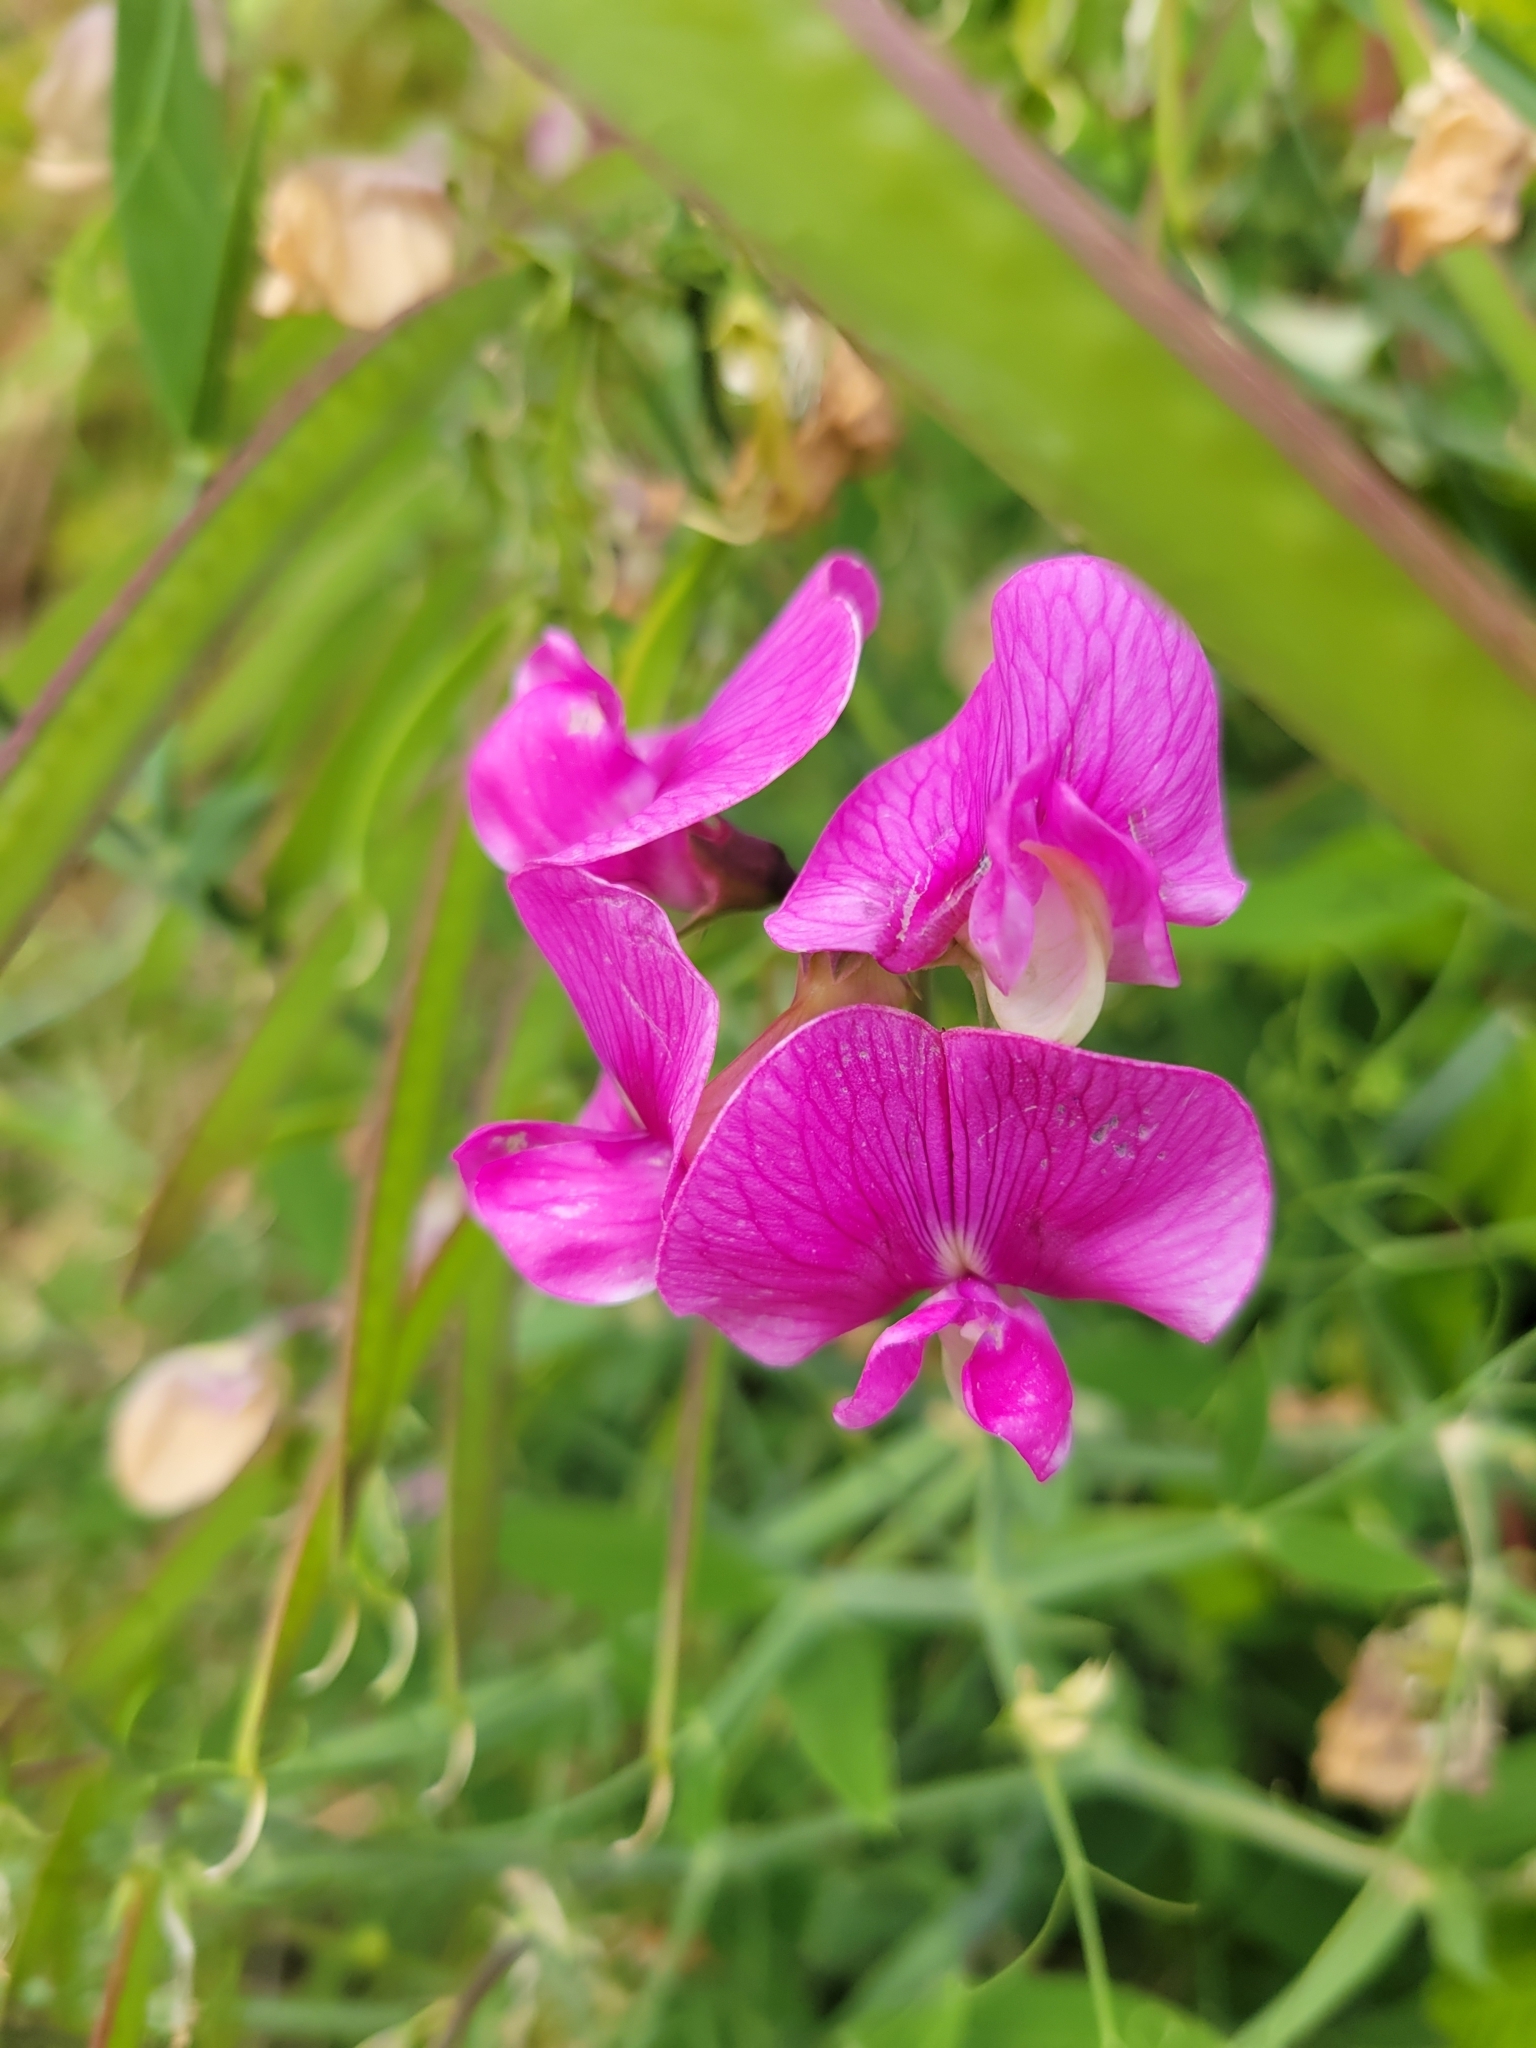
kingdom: Plantae
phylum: Tracheophyta
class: Magnoliopsida
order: Fabales
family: Fabaceae
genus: Lathyrus
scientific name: Lathyrus latifolius
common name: Perennial pea
